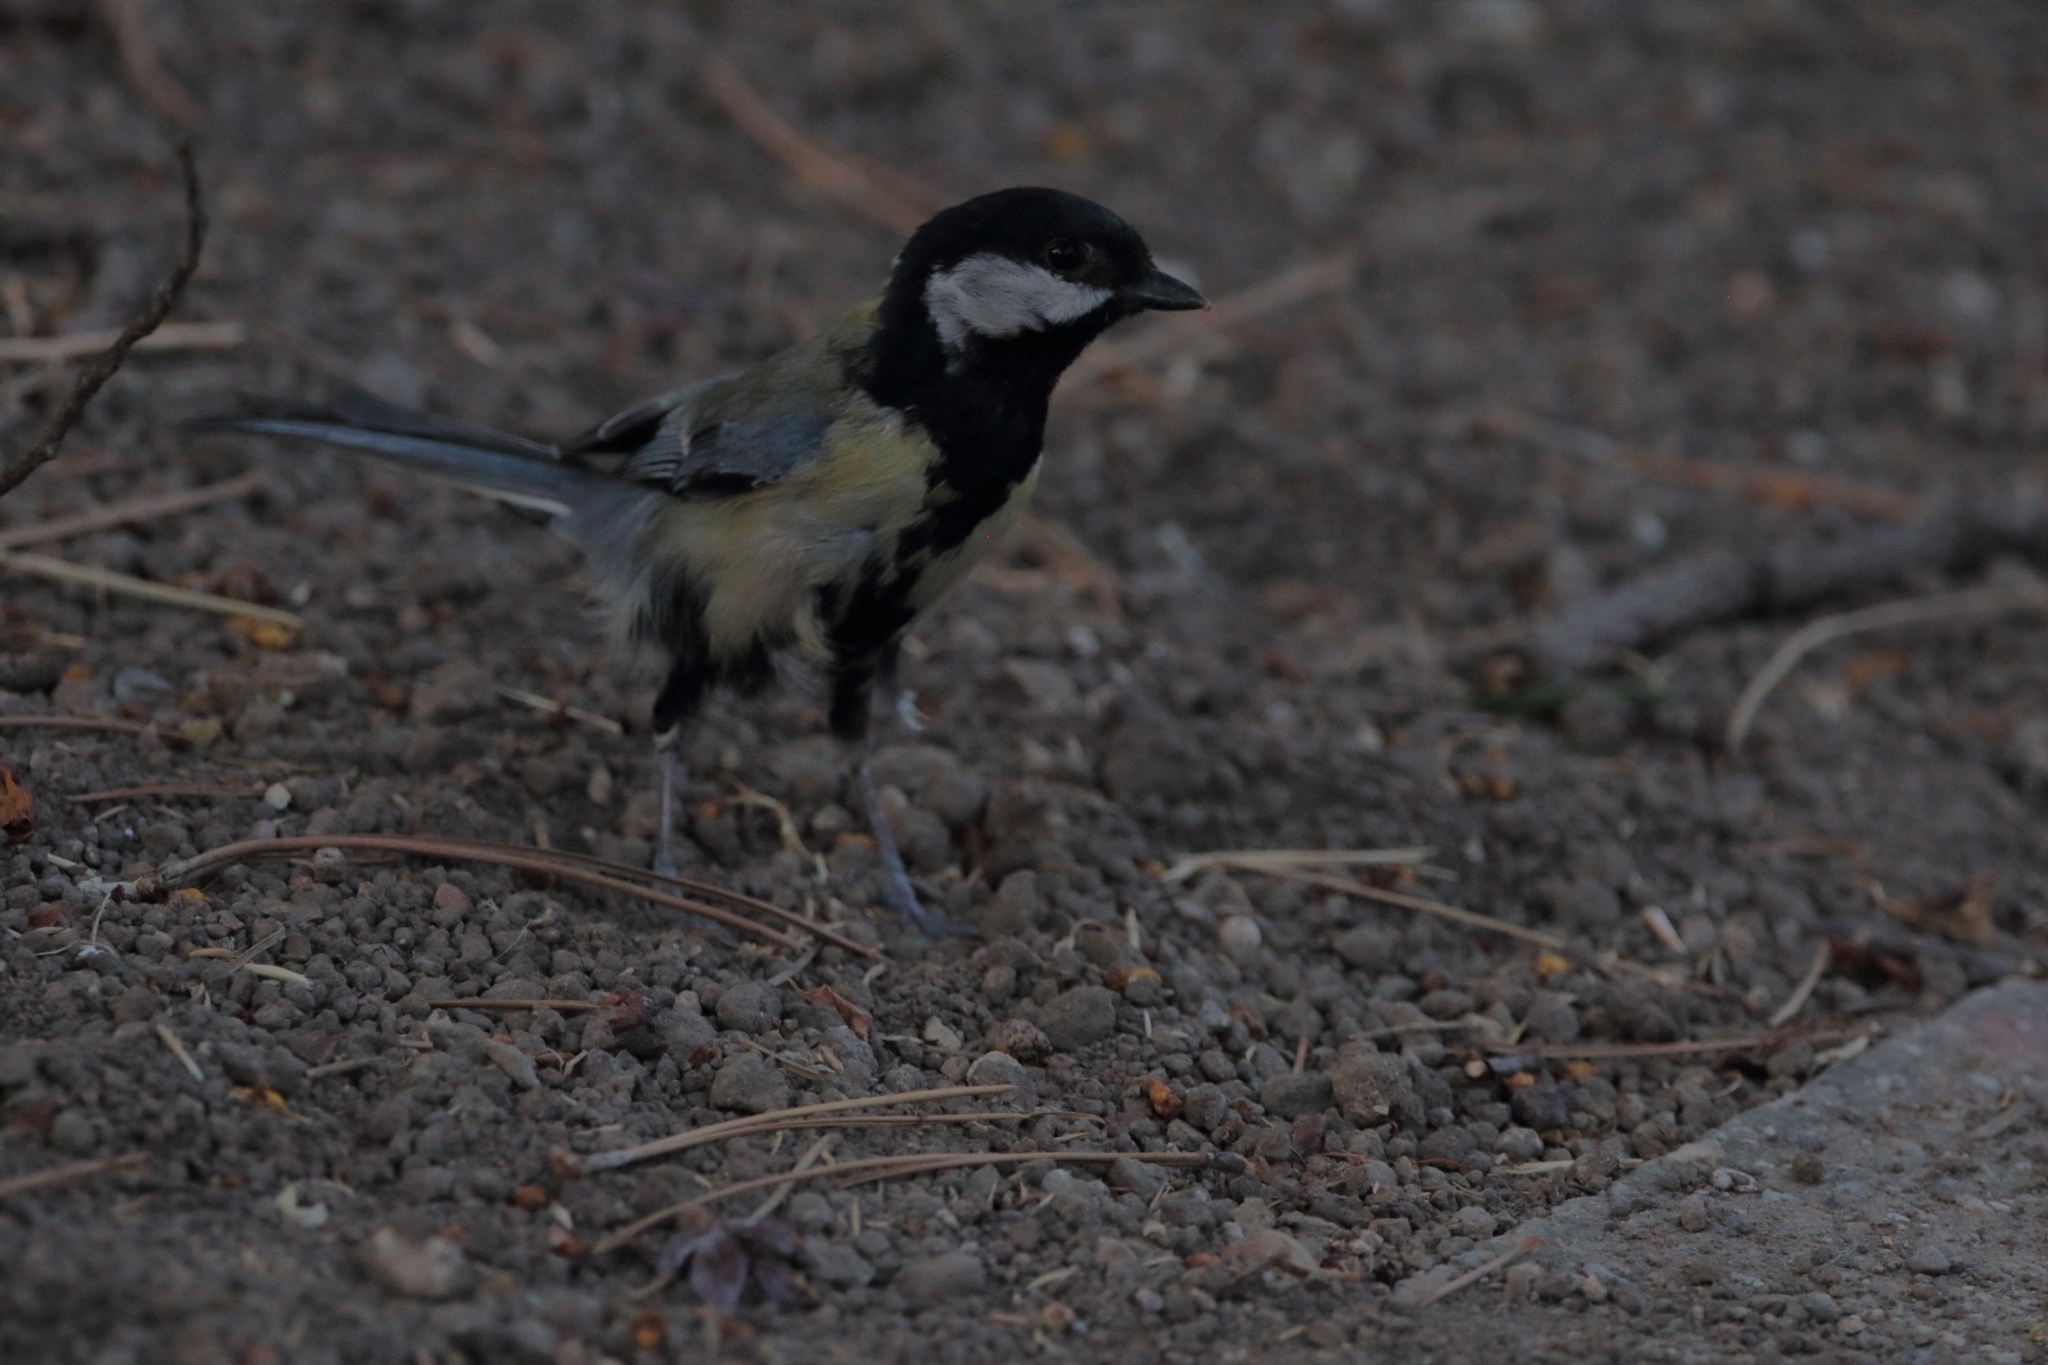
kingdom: Animalia
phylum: Chordata
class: Aves
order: Passeriformes
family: Paridae
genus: Parus
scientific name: Parus major
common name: Great tit
